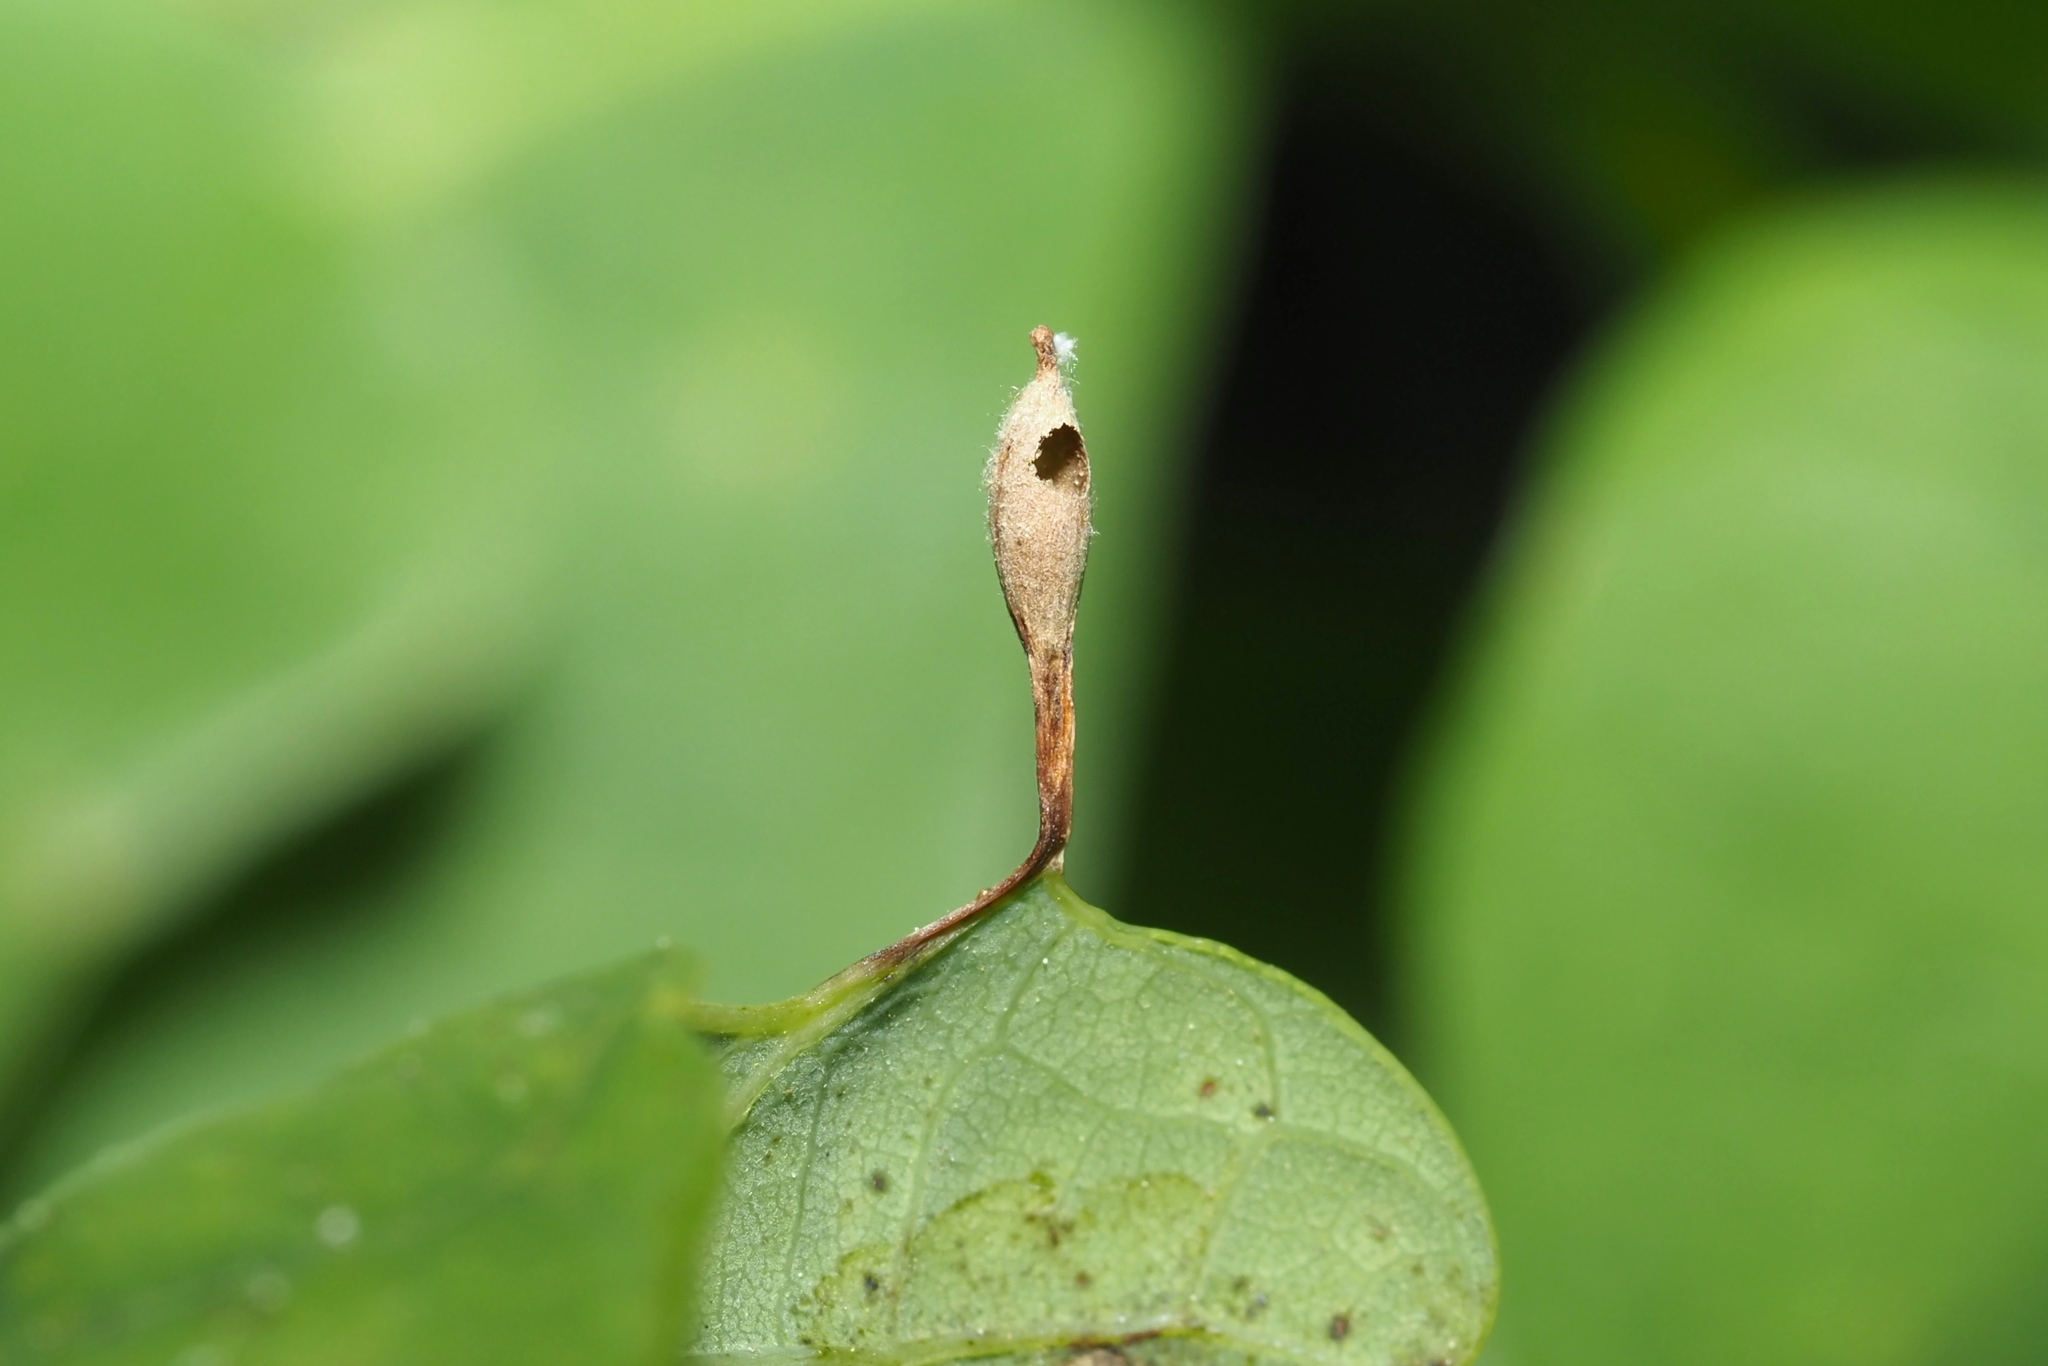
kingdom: Animalia
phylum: Arthropoda
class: Insecta
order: Hymenoptera
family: Cynipidae
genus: Andricus
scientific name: Andricus
